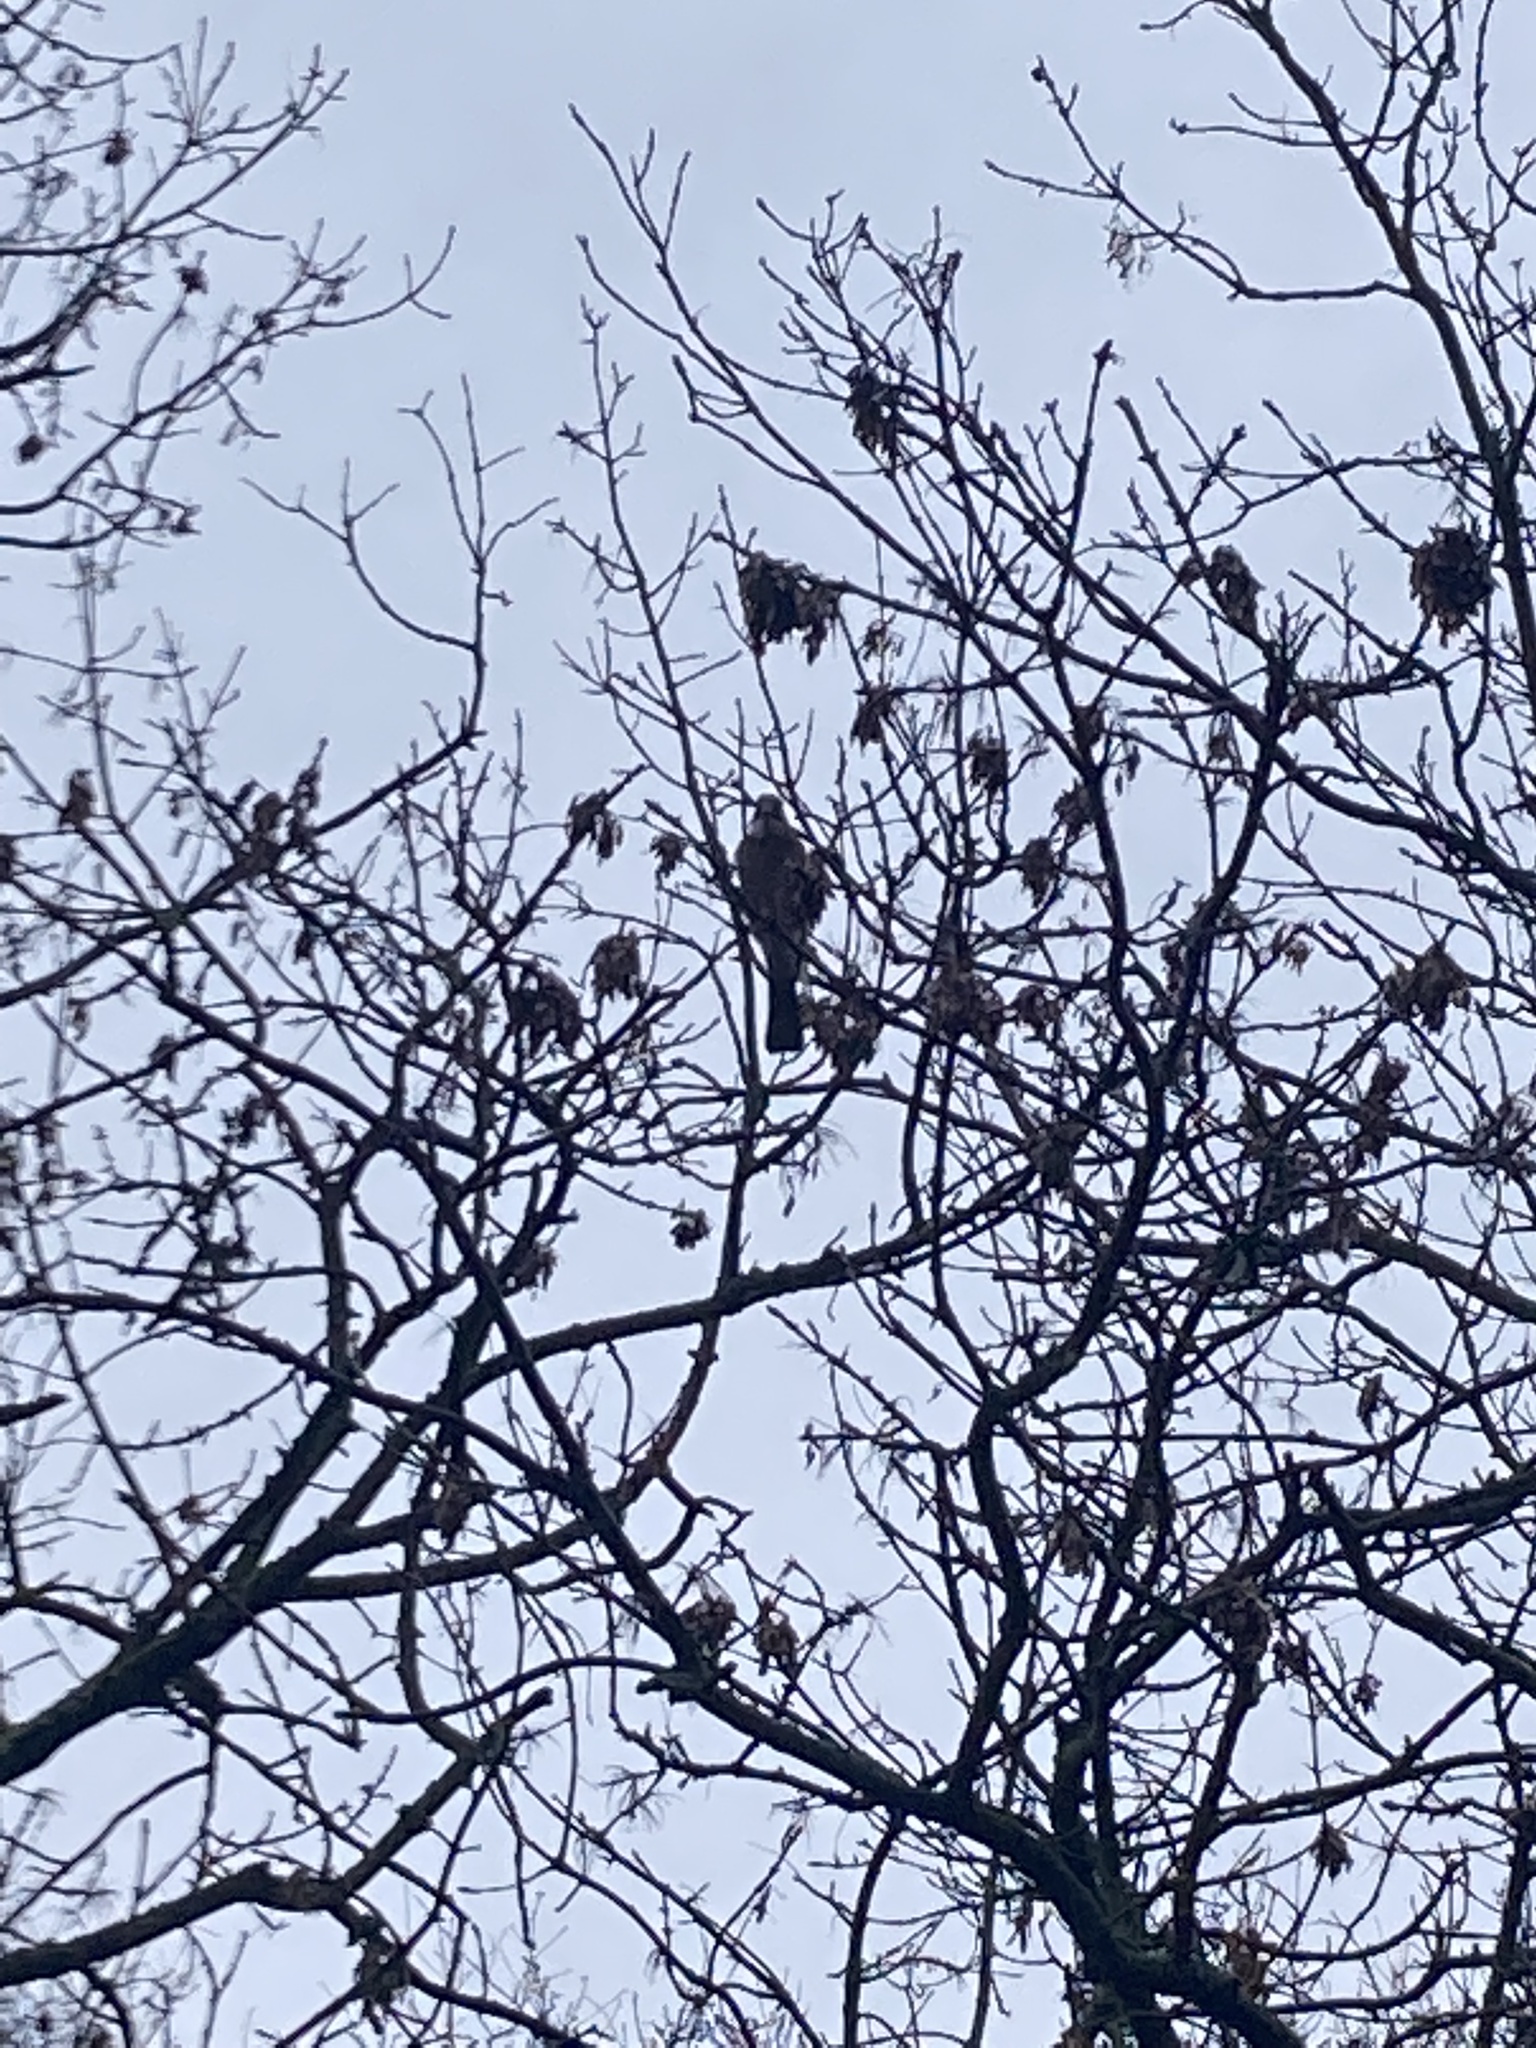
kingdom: Animalia
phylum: Chordata
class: Aves
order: Passeriformes
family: Corvidae
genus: Garrulus
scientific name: Garrulus glandarius
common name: Eurasian jay
